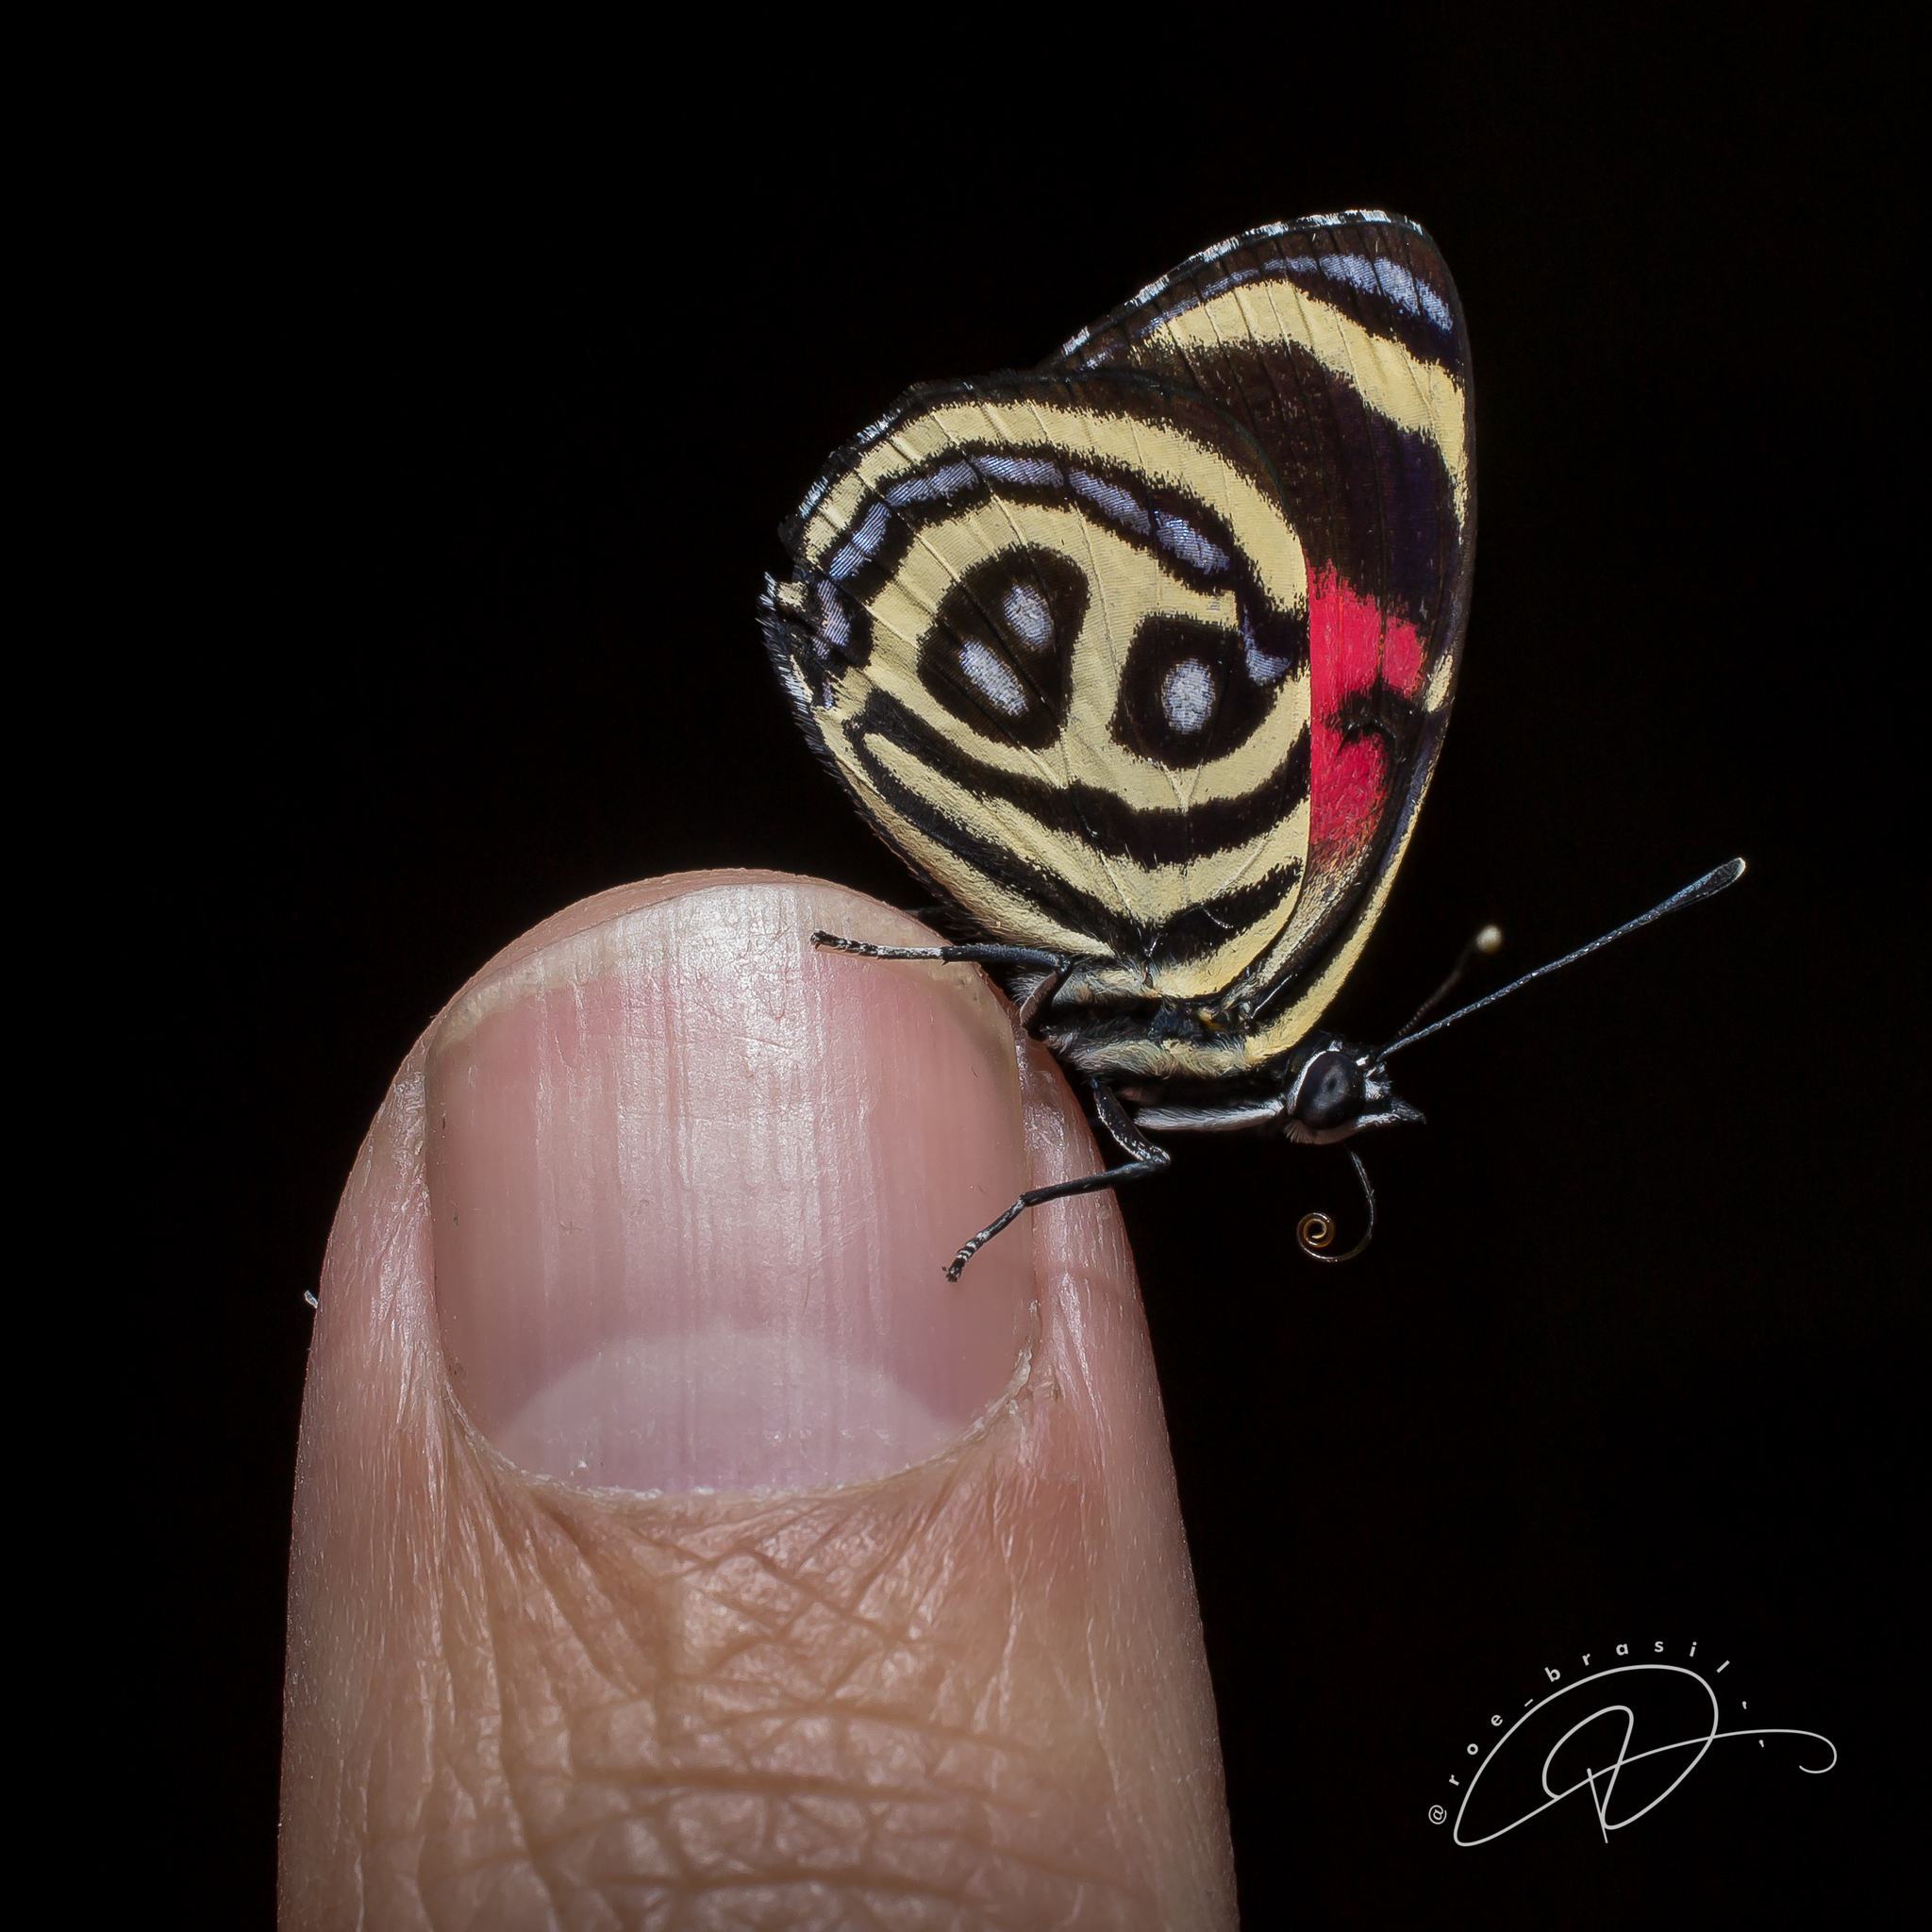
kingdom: Animalia
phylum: Arthropoda
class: Insecta
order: Lepidoptera
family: Nymphalidae
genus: Catagramma
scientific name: Catagramma pyracmon
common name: Google-eyed eighty-eight
